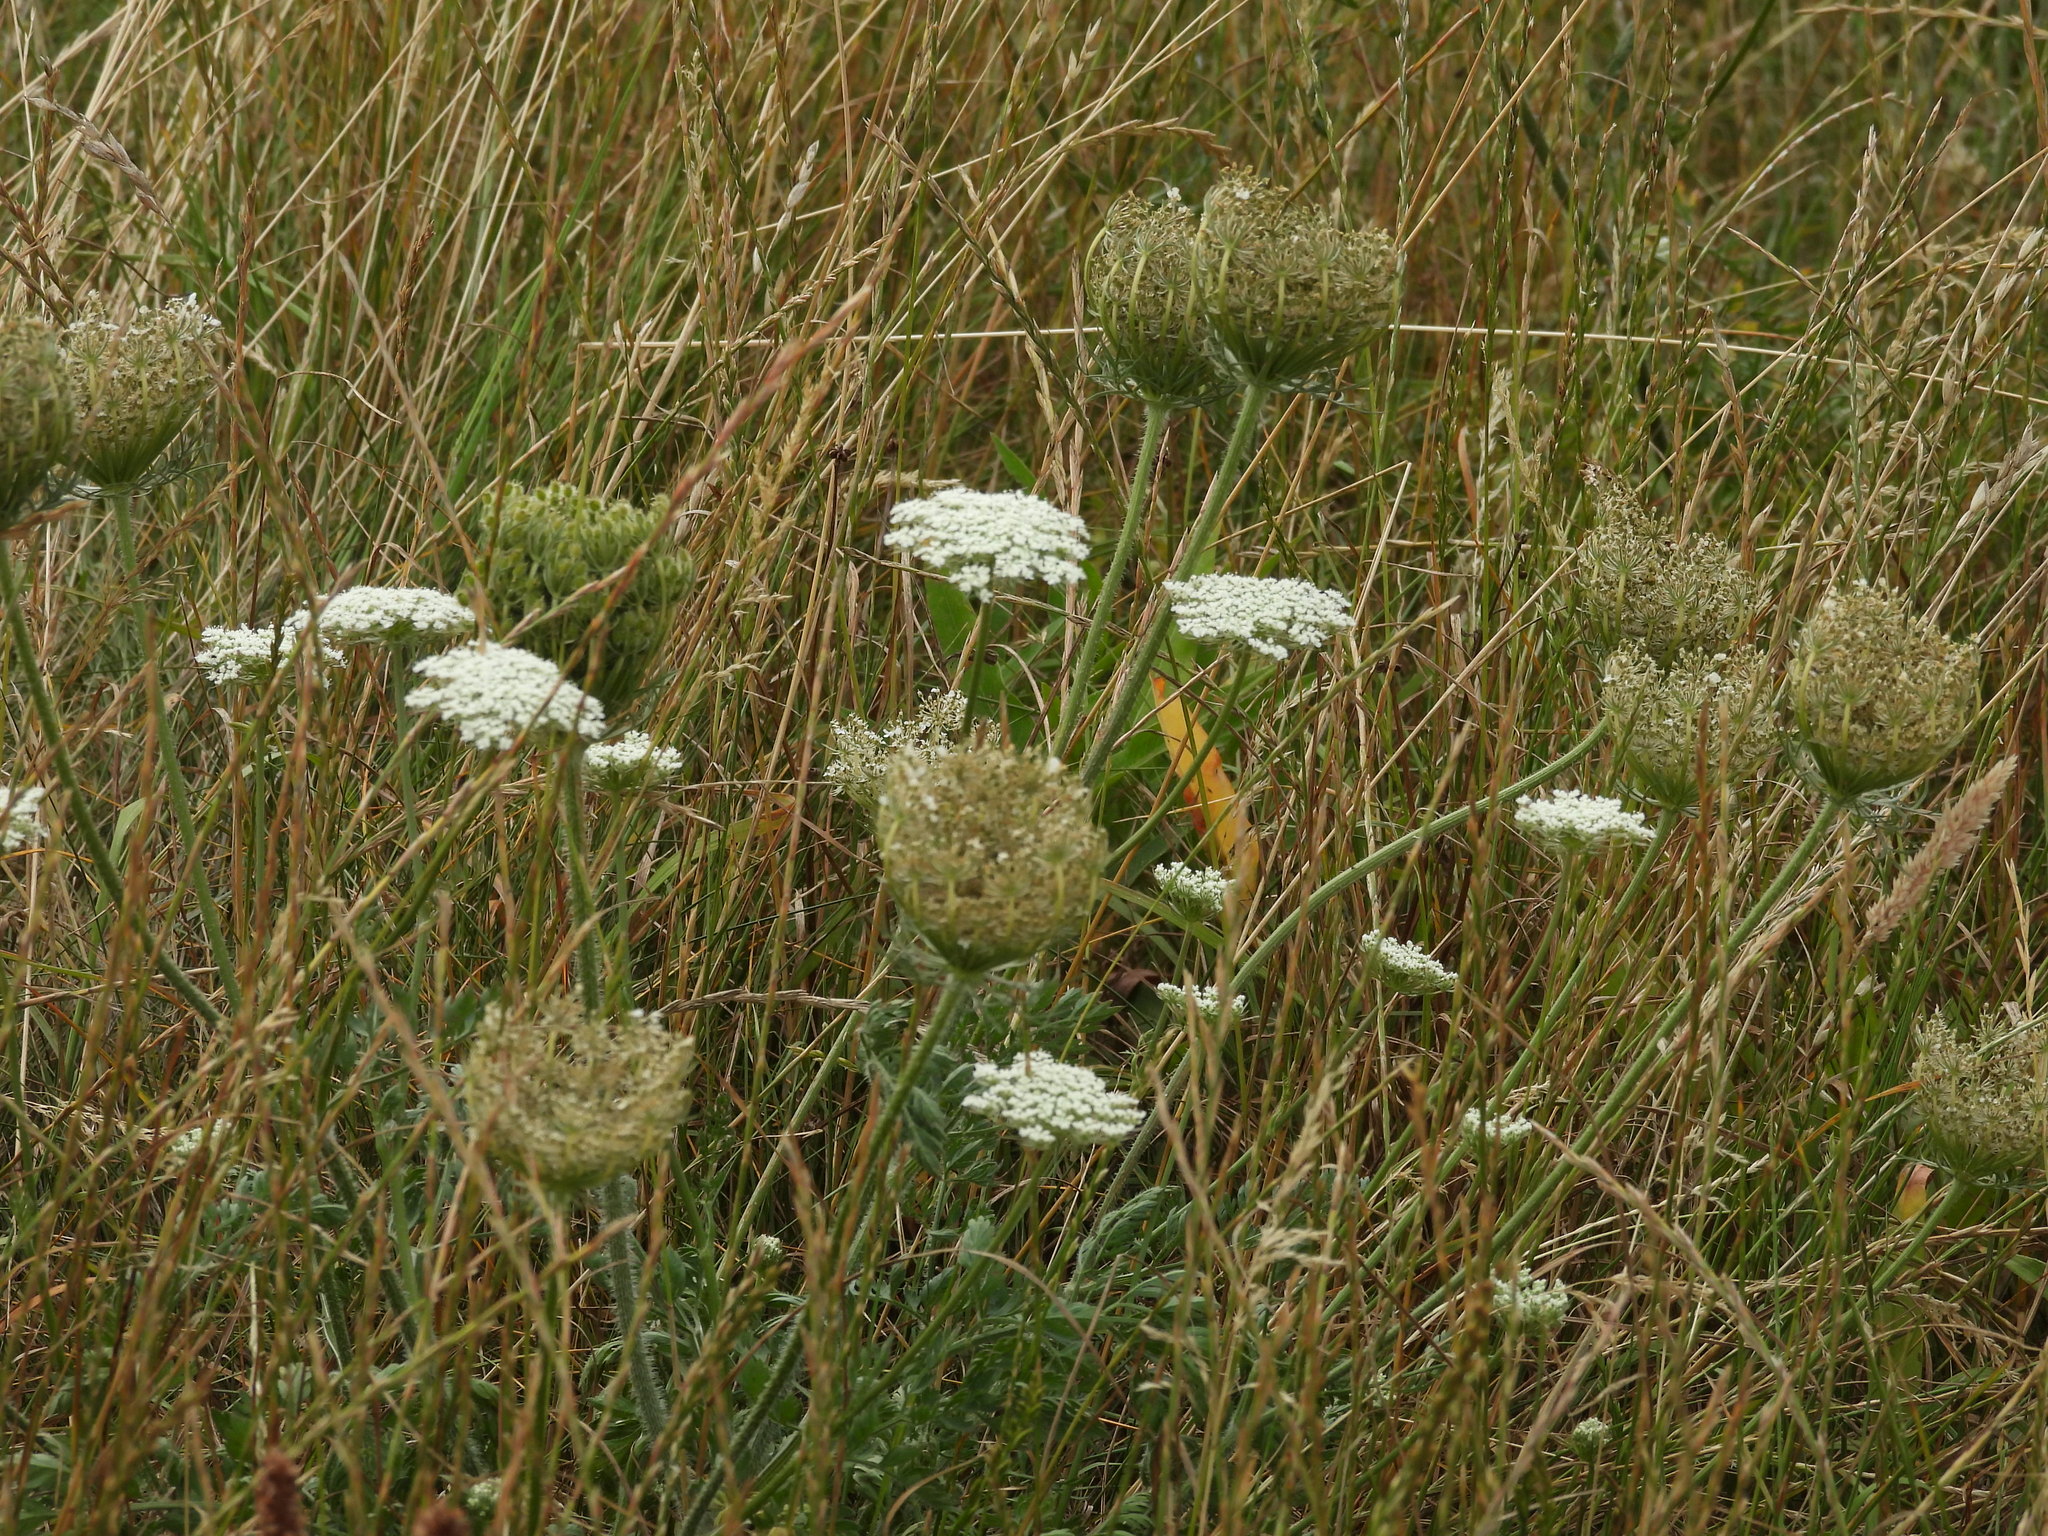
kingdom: Plantae
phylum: Tracheophyta
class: Magnoliopsida
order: Apiales
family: Apiaceae
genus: Daucus
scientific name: Daucus carota
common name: Wild carrot
